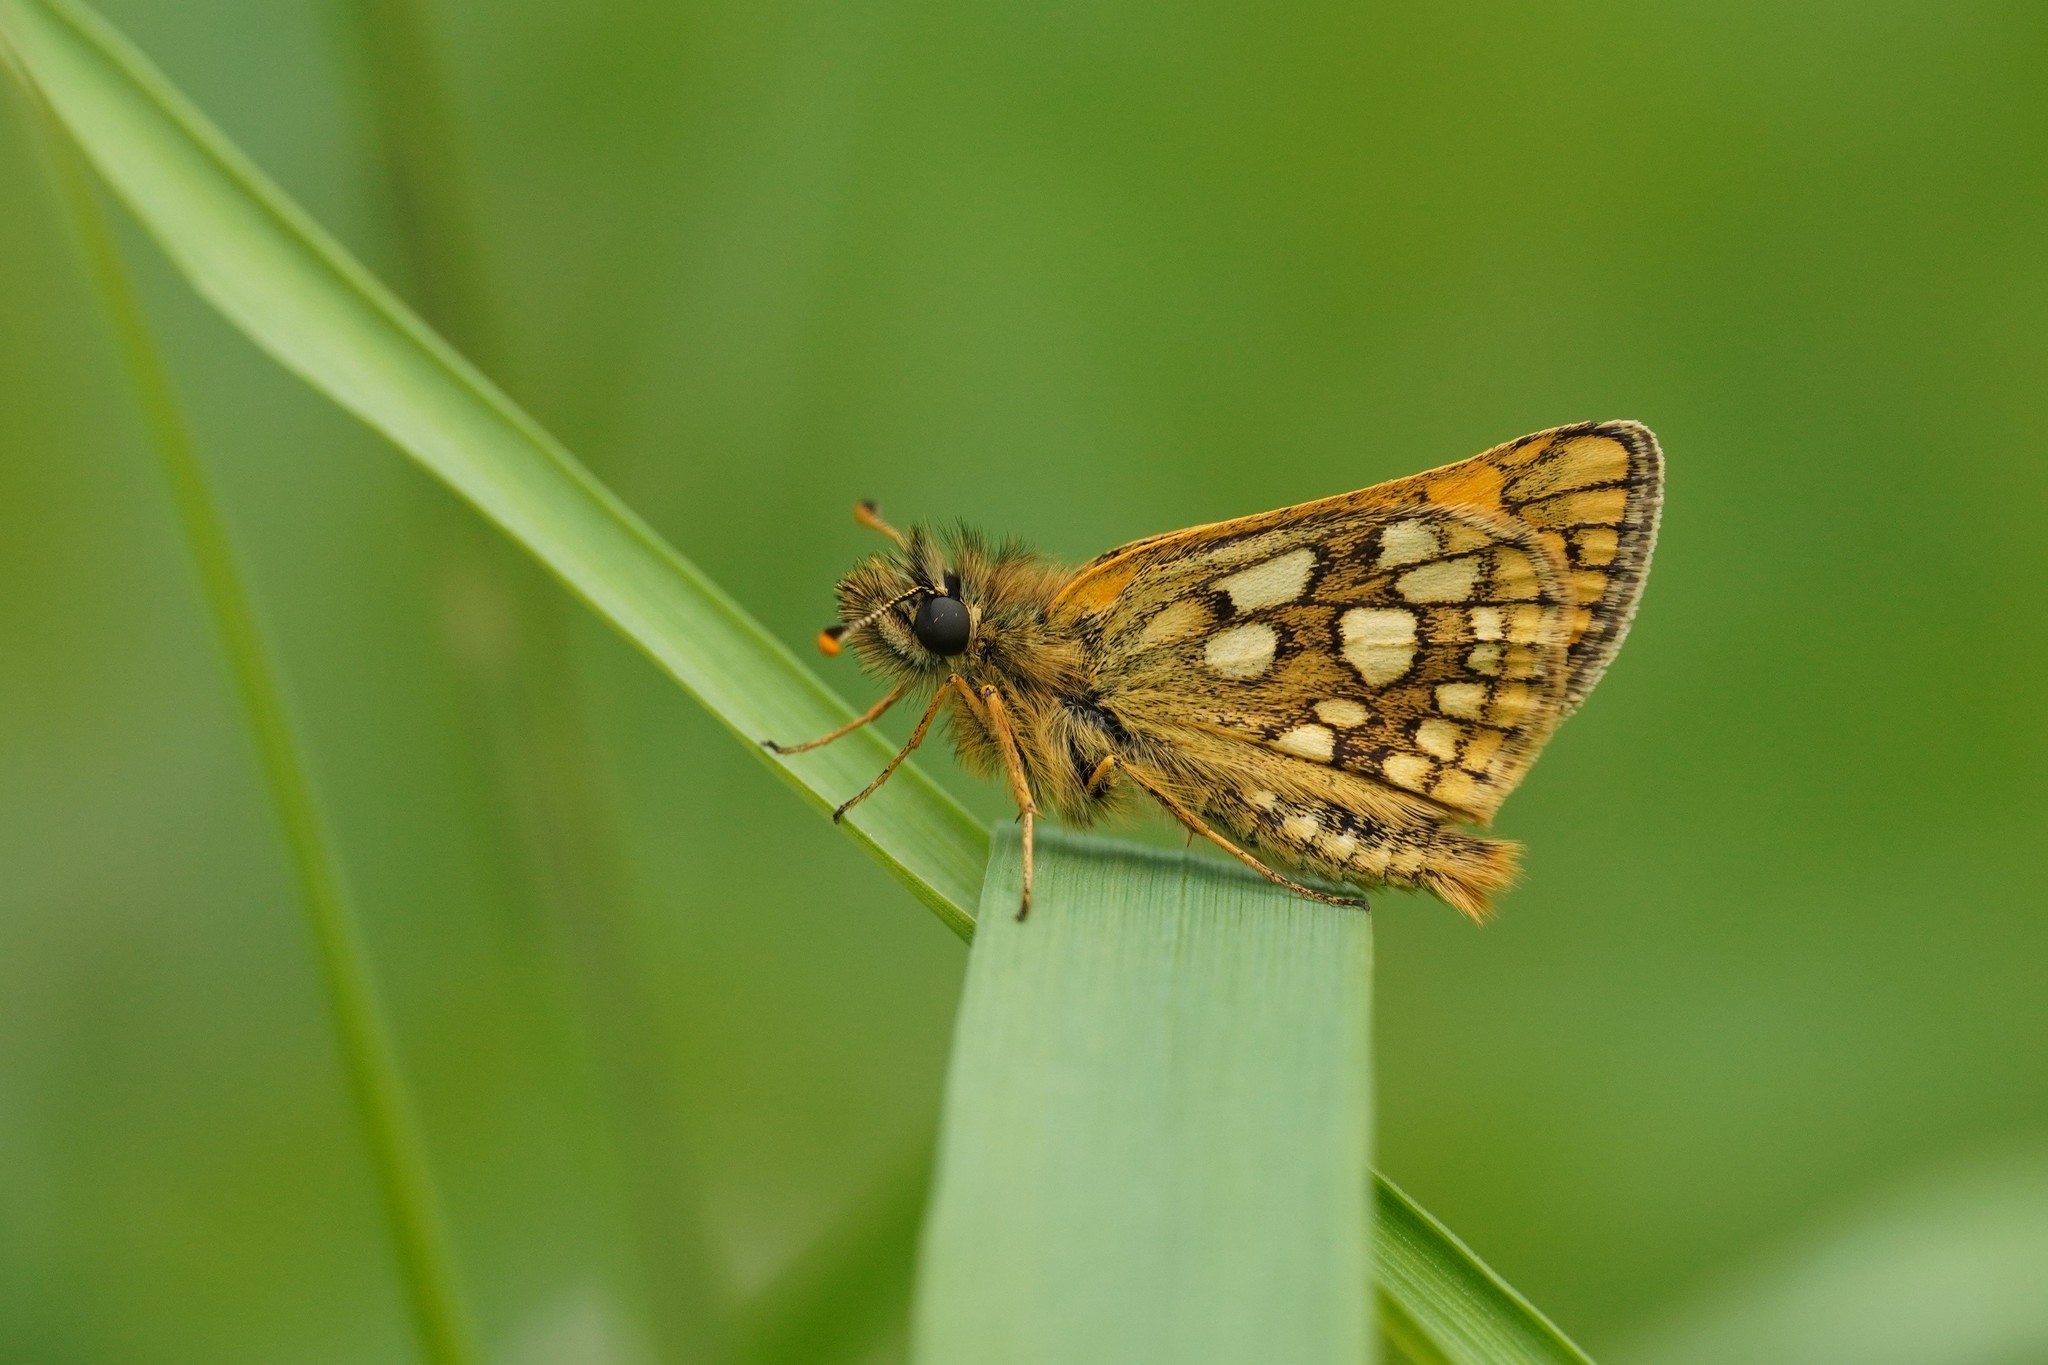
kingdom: Animalia
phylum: Arthropoda
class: Insecta
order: Lepidoptera
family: Hesperiidae
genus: Carterocephalus
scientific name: Carterocephalus palaemon
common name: Chequered skipper
